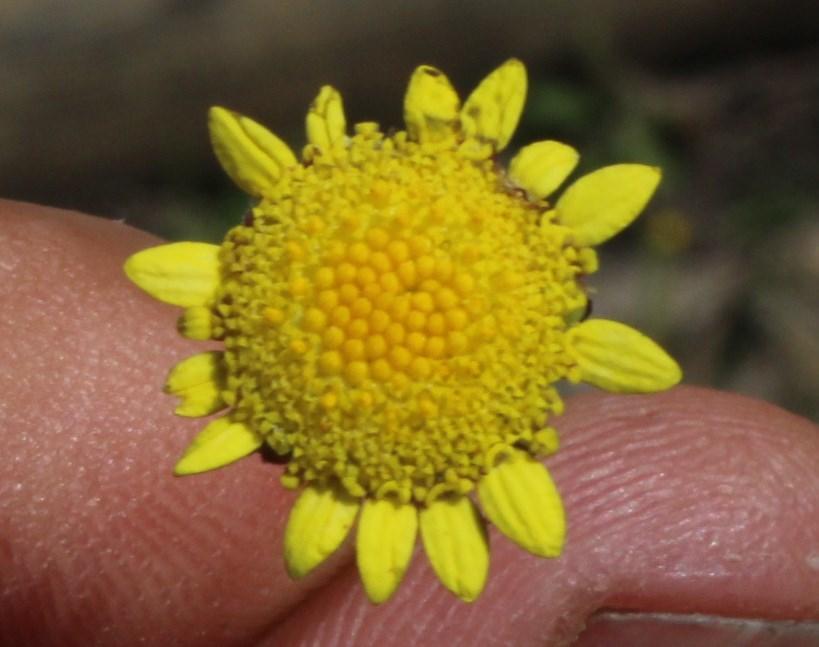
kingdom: Plantae
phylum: Tracheophyta
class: Magnoliopsida
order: Asterales
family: Asteraceae
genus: Cotula
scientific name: Cotula pruinosa
